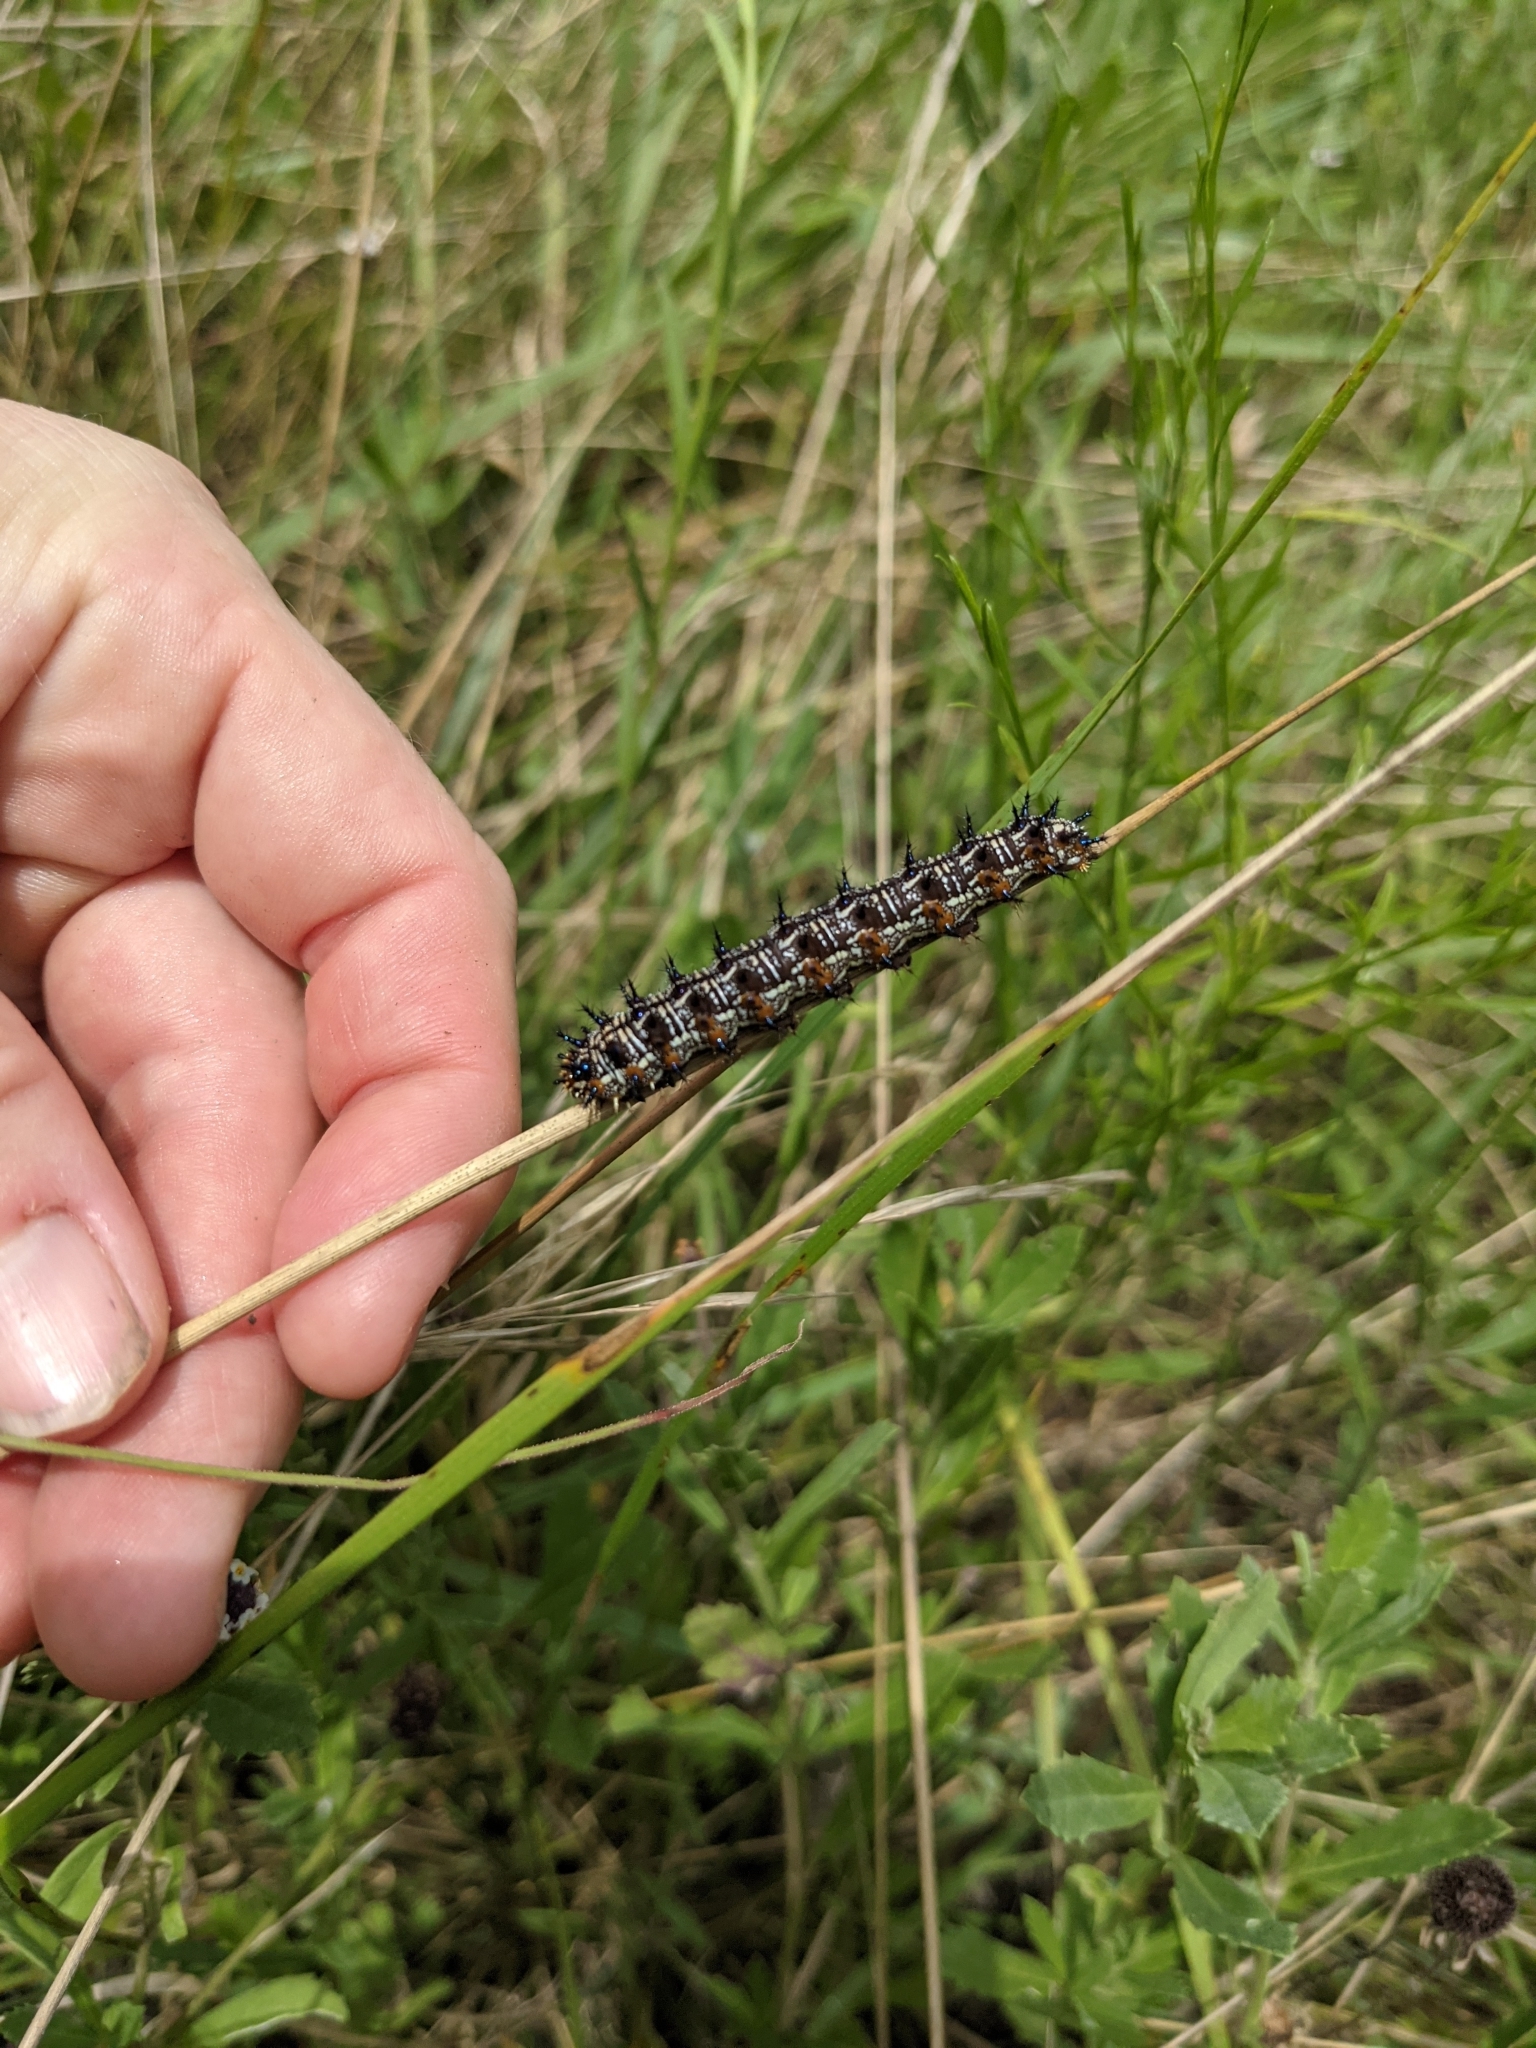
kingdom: Animalia
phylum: Arthropoda
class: Insecta
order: Lepidoptera
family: Nymphalidae
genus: Junonia
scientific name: Junonia coenia
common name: Common buckeye
